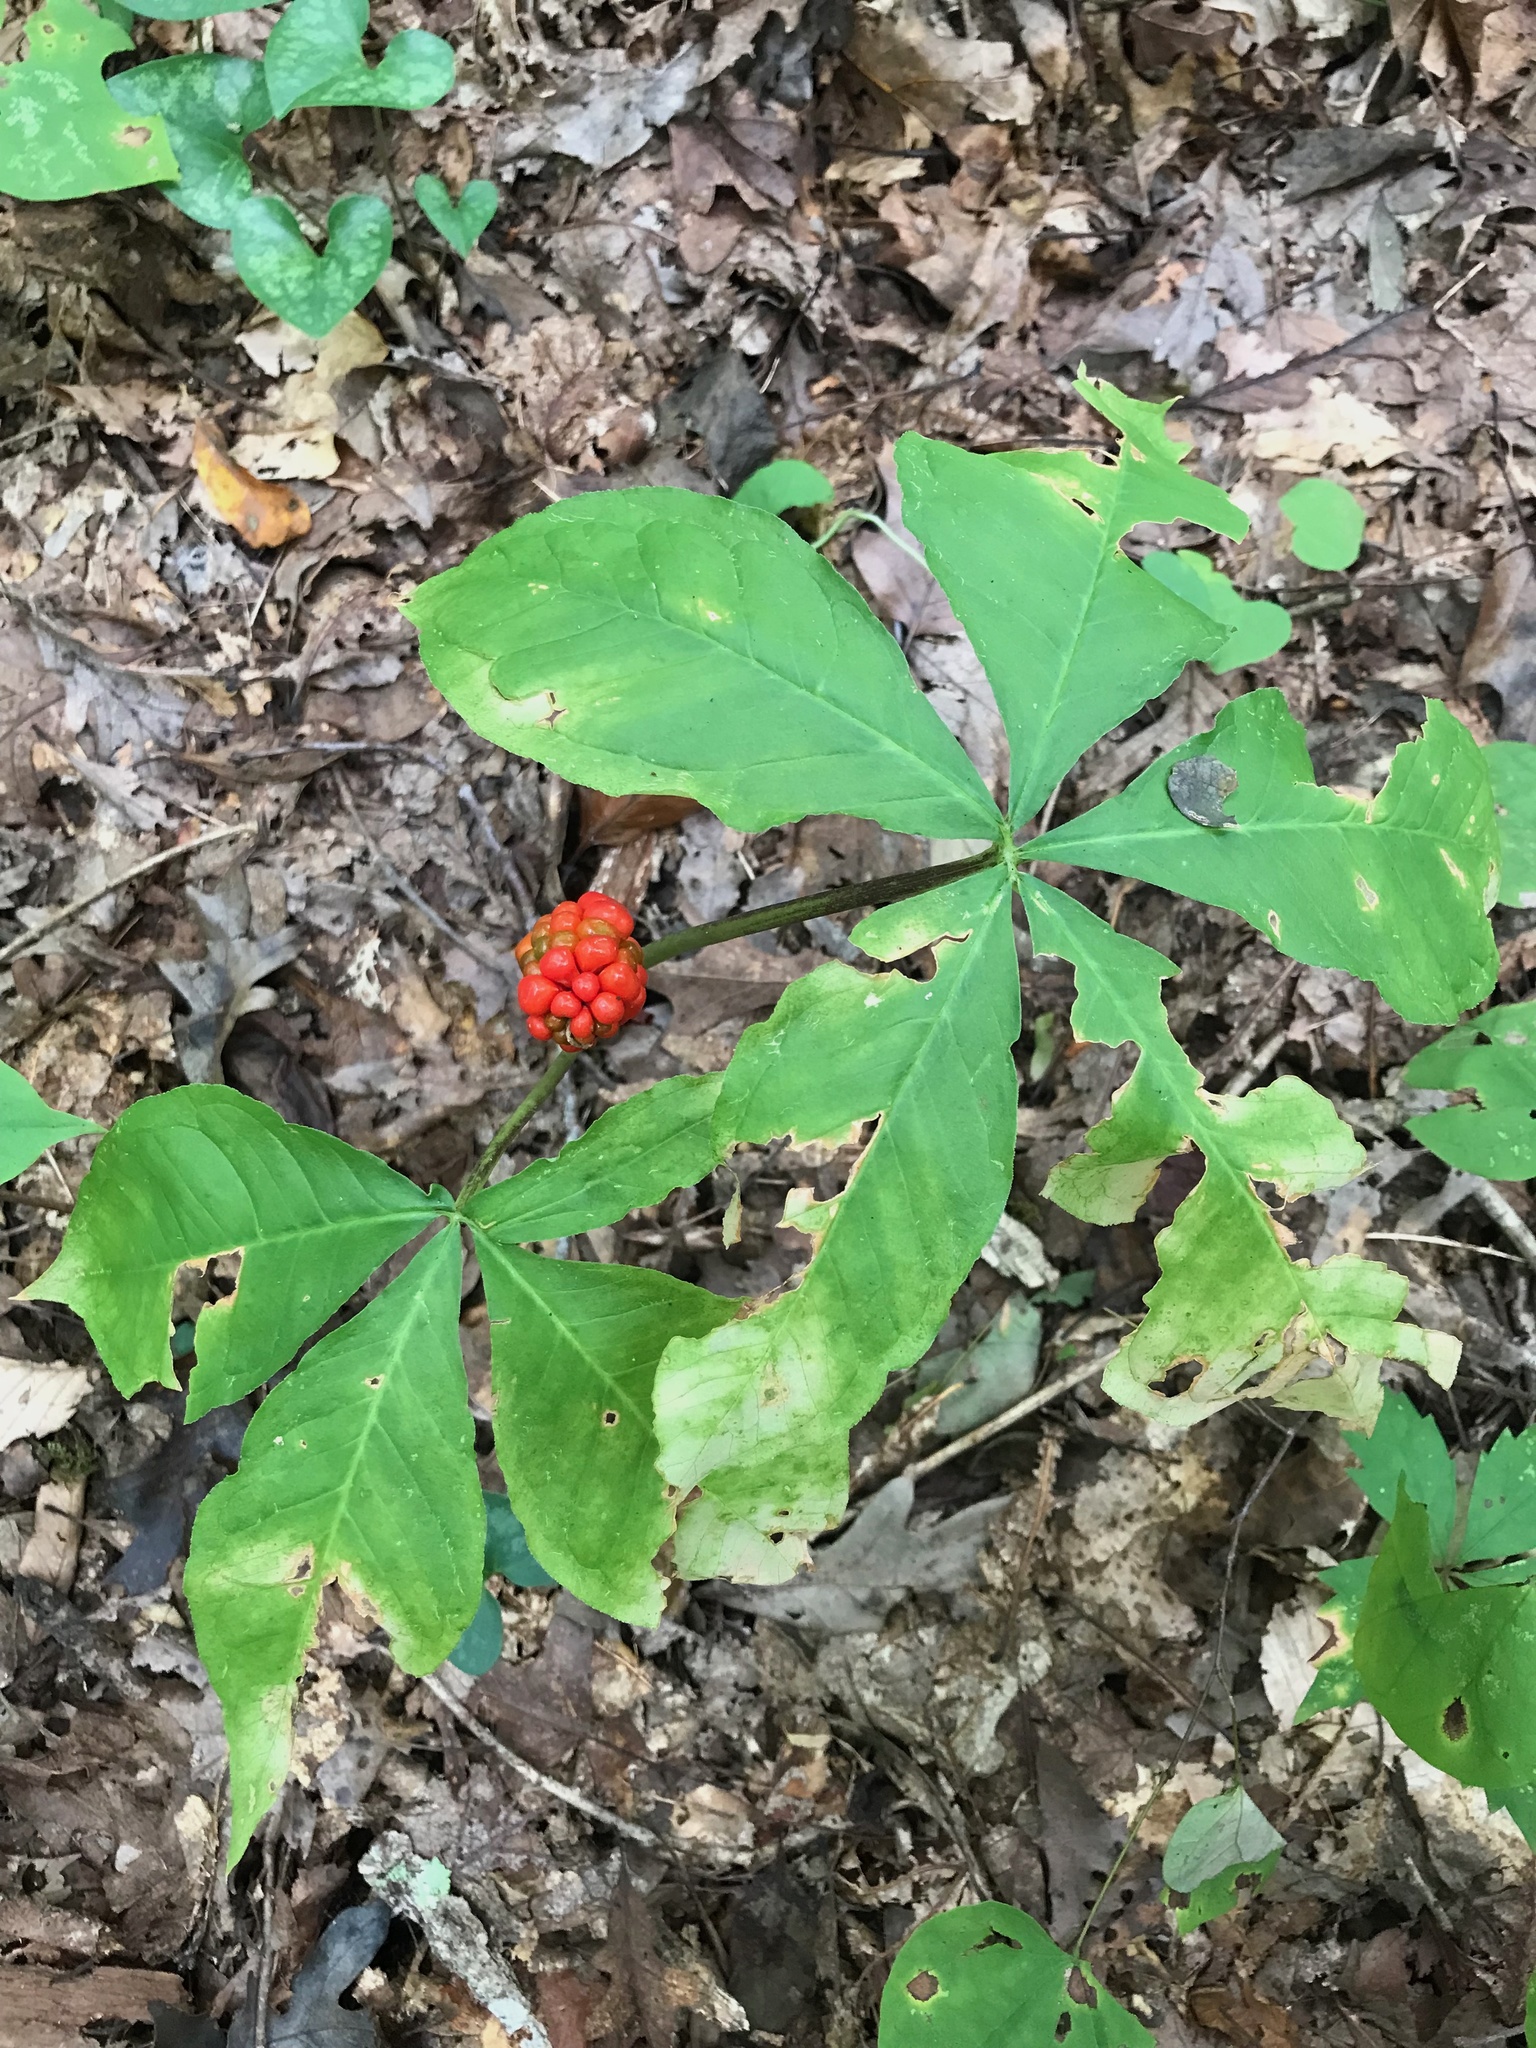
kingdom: Plantae
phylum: Tracheophyta
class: Liliopsida
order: Alismatales
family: Araceae
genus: Arisaema
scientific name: Arisaema quinatum
